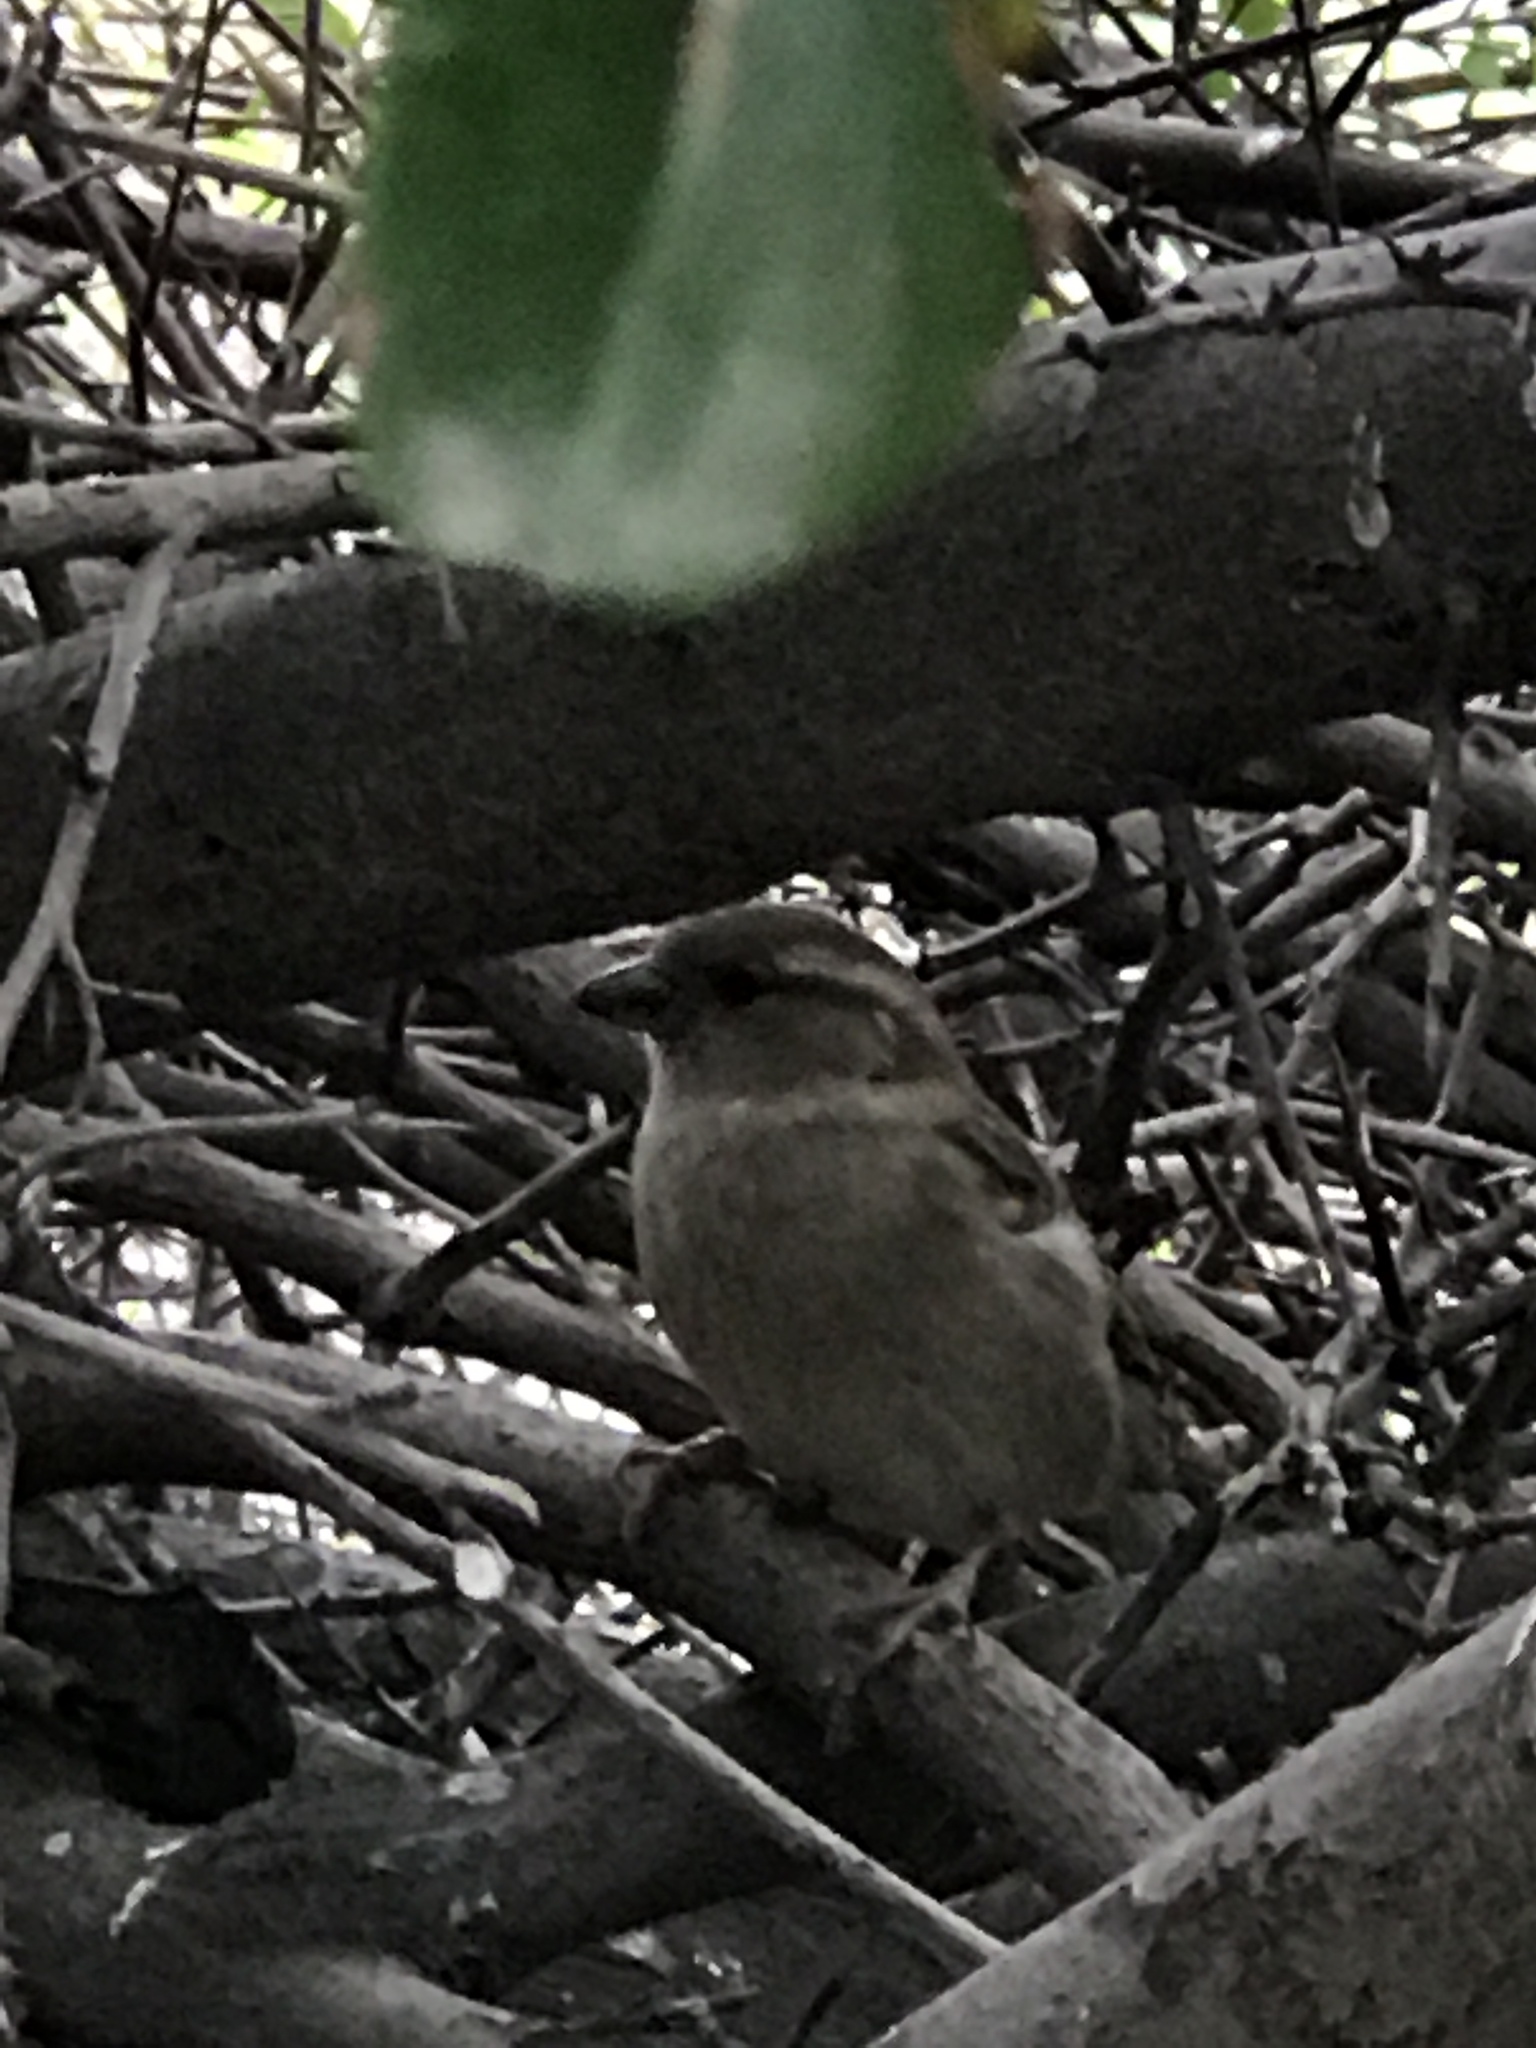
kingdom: Animalia
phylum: Chordata
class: Aves
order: Passeriformes
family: Passeridae
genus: Passer
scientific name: Passer domesticus
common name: House sparrow
